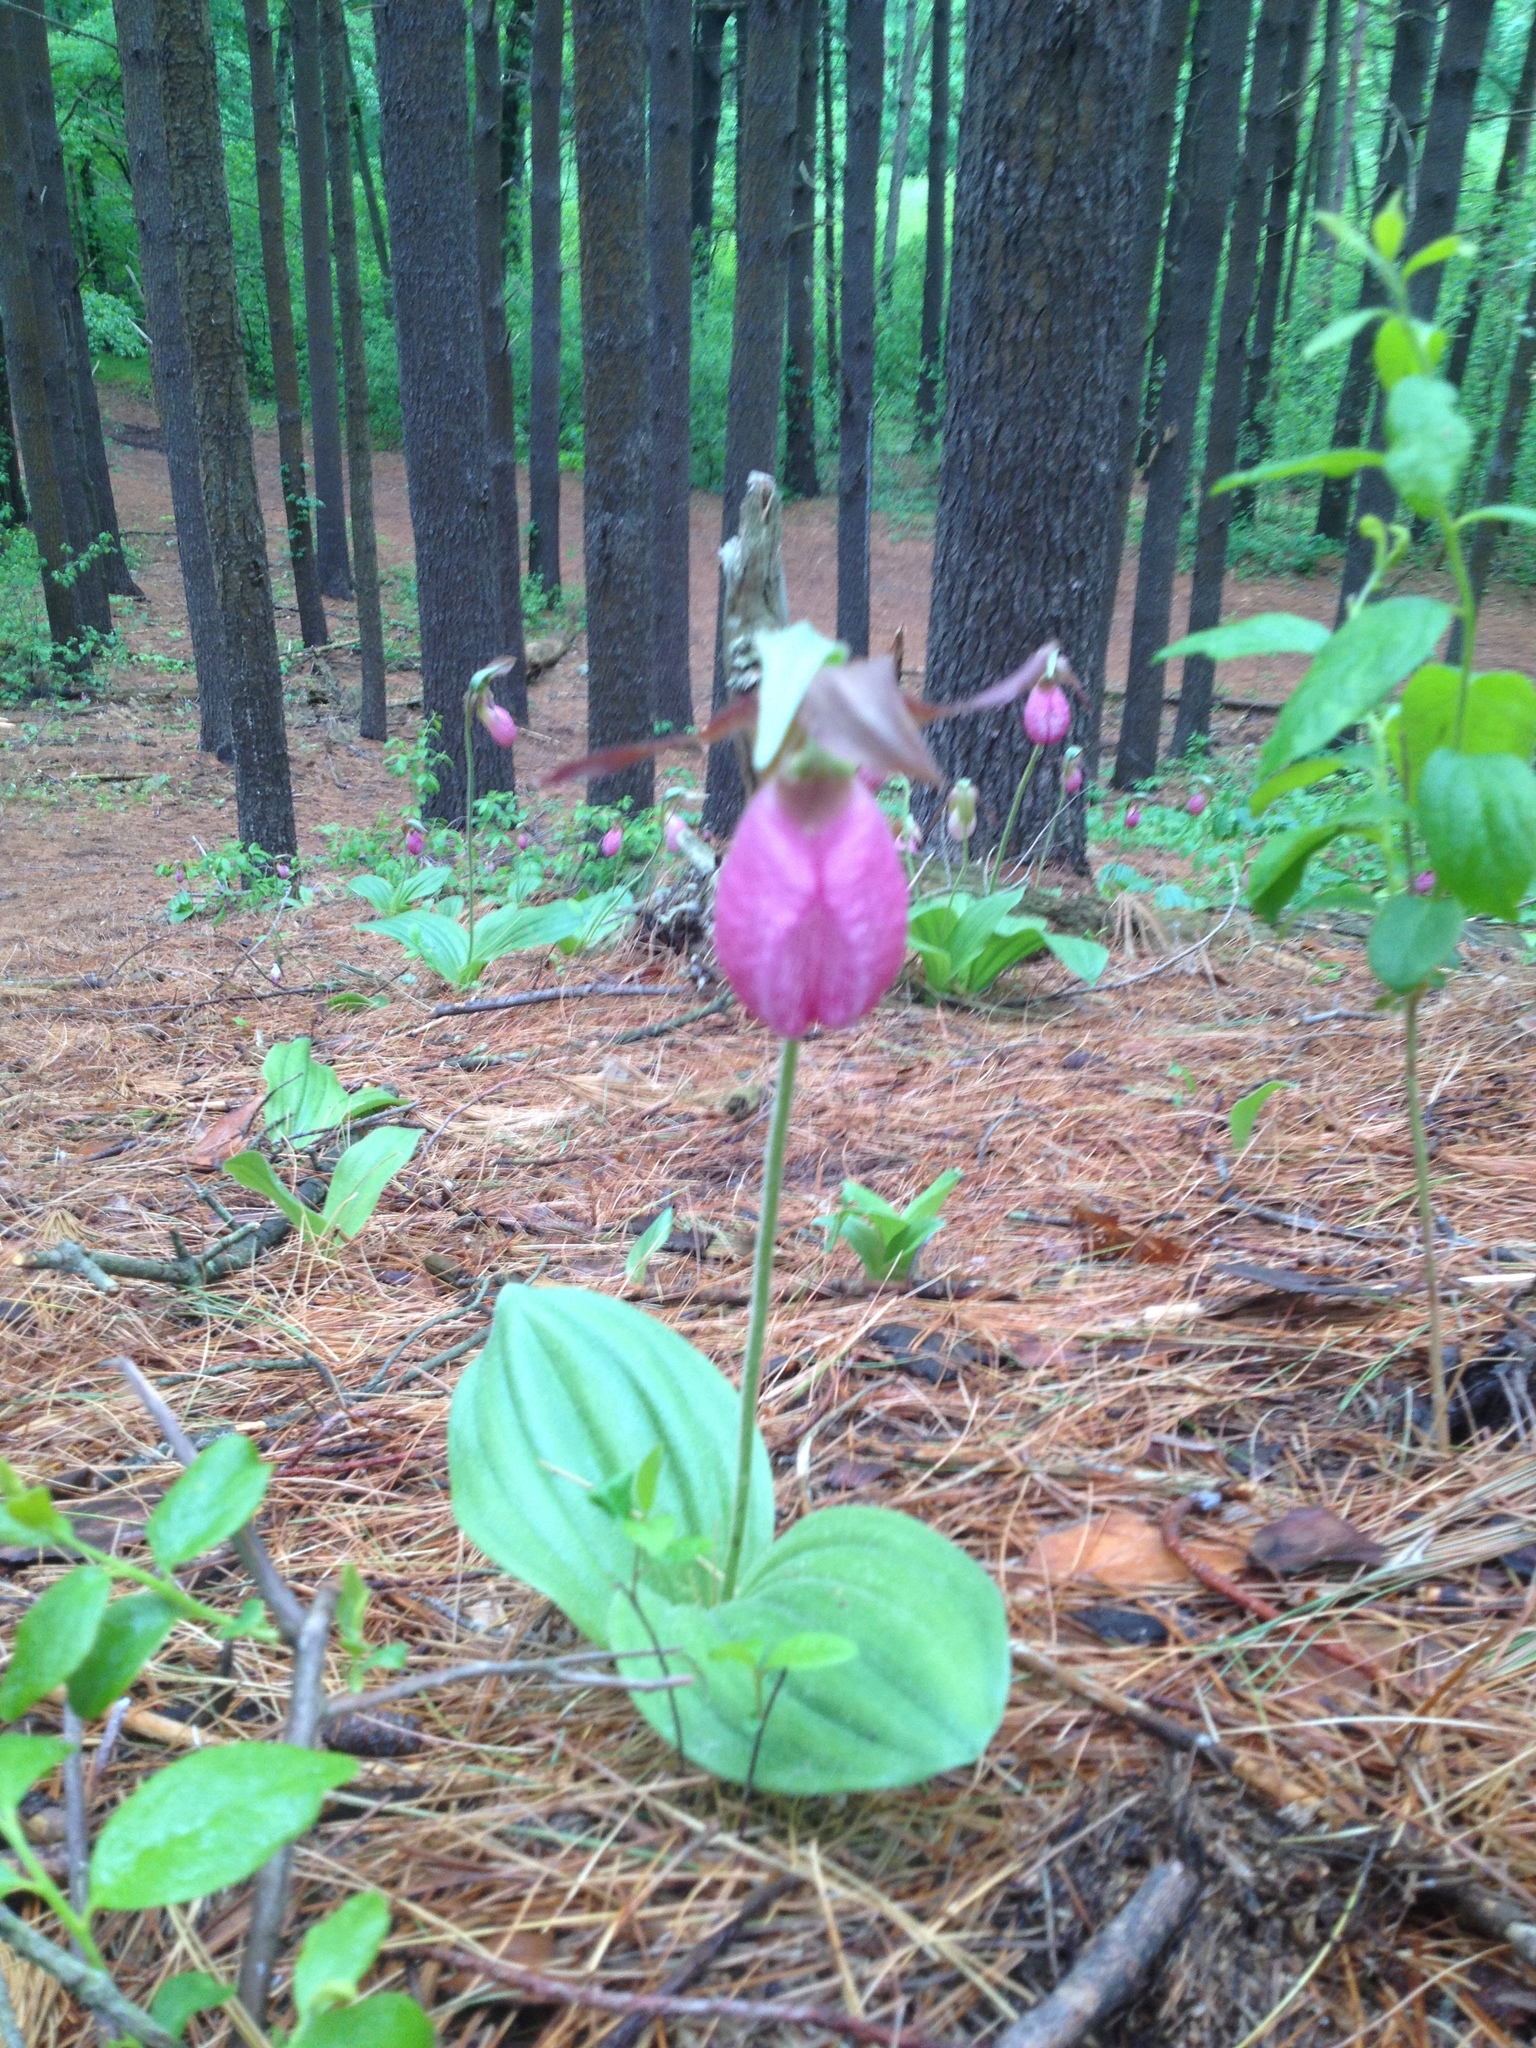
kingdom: Plantae
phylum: Tracheophyta
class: Liliopsida
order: Asparagales
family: Orchidaceae
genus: Cypripedium
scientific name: Cypripedium acaule
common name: Pink lady's-slipper
